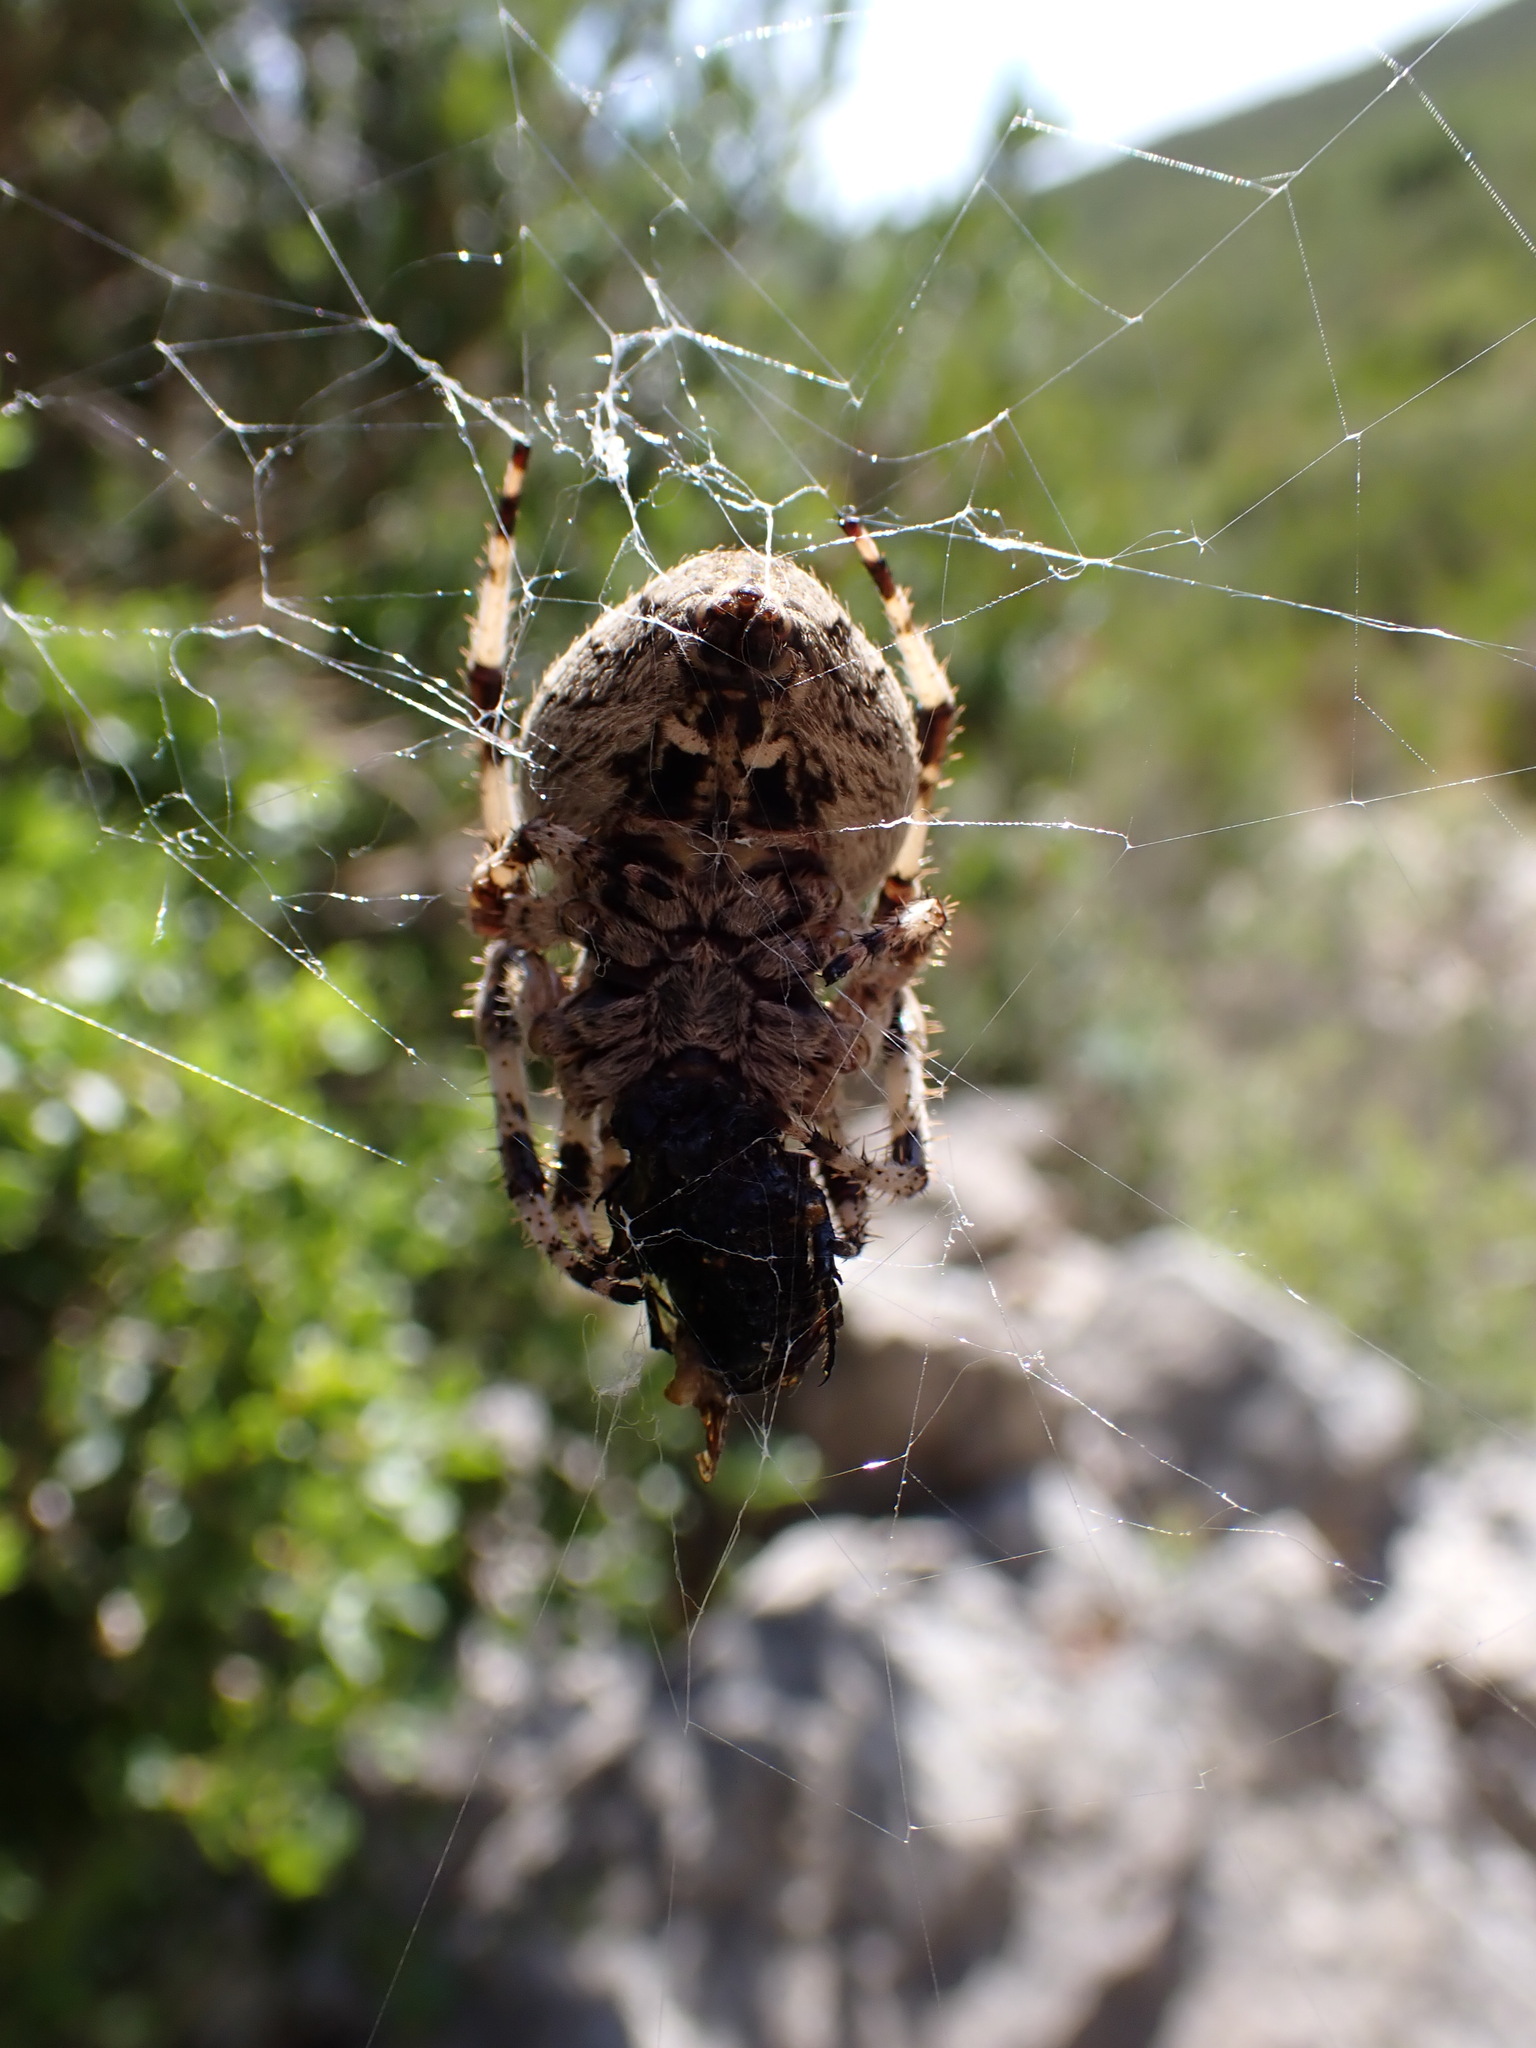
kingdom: Animalia
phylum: Arthropoda
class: Arachnida
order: Araneae
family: Araneidae
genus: Araneus
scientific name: Araneus angulatus
